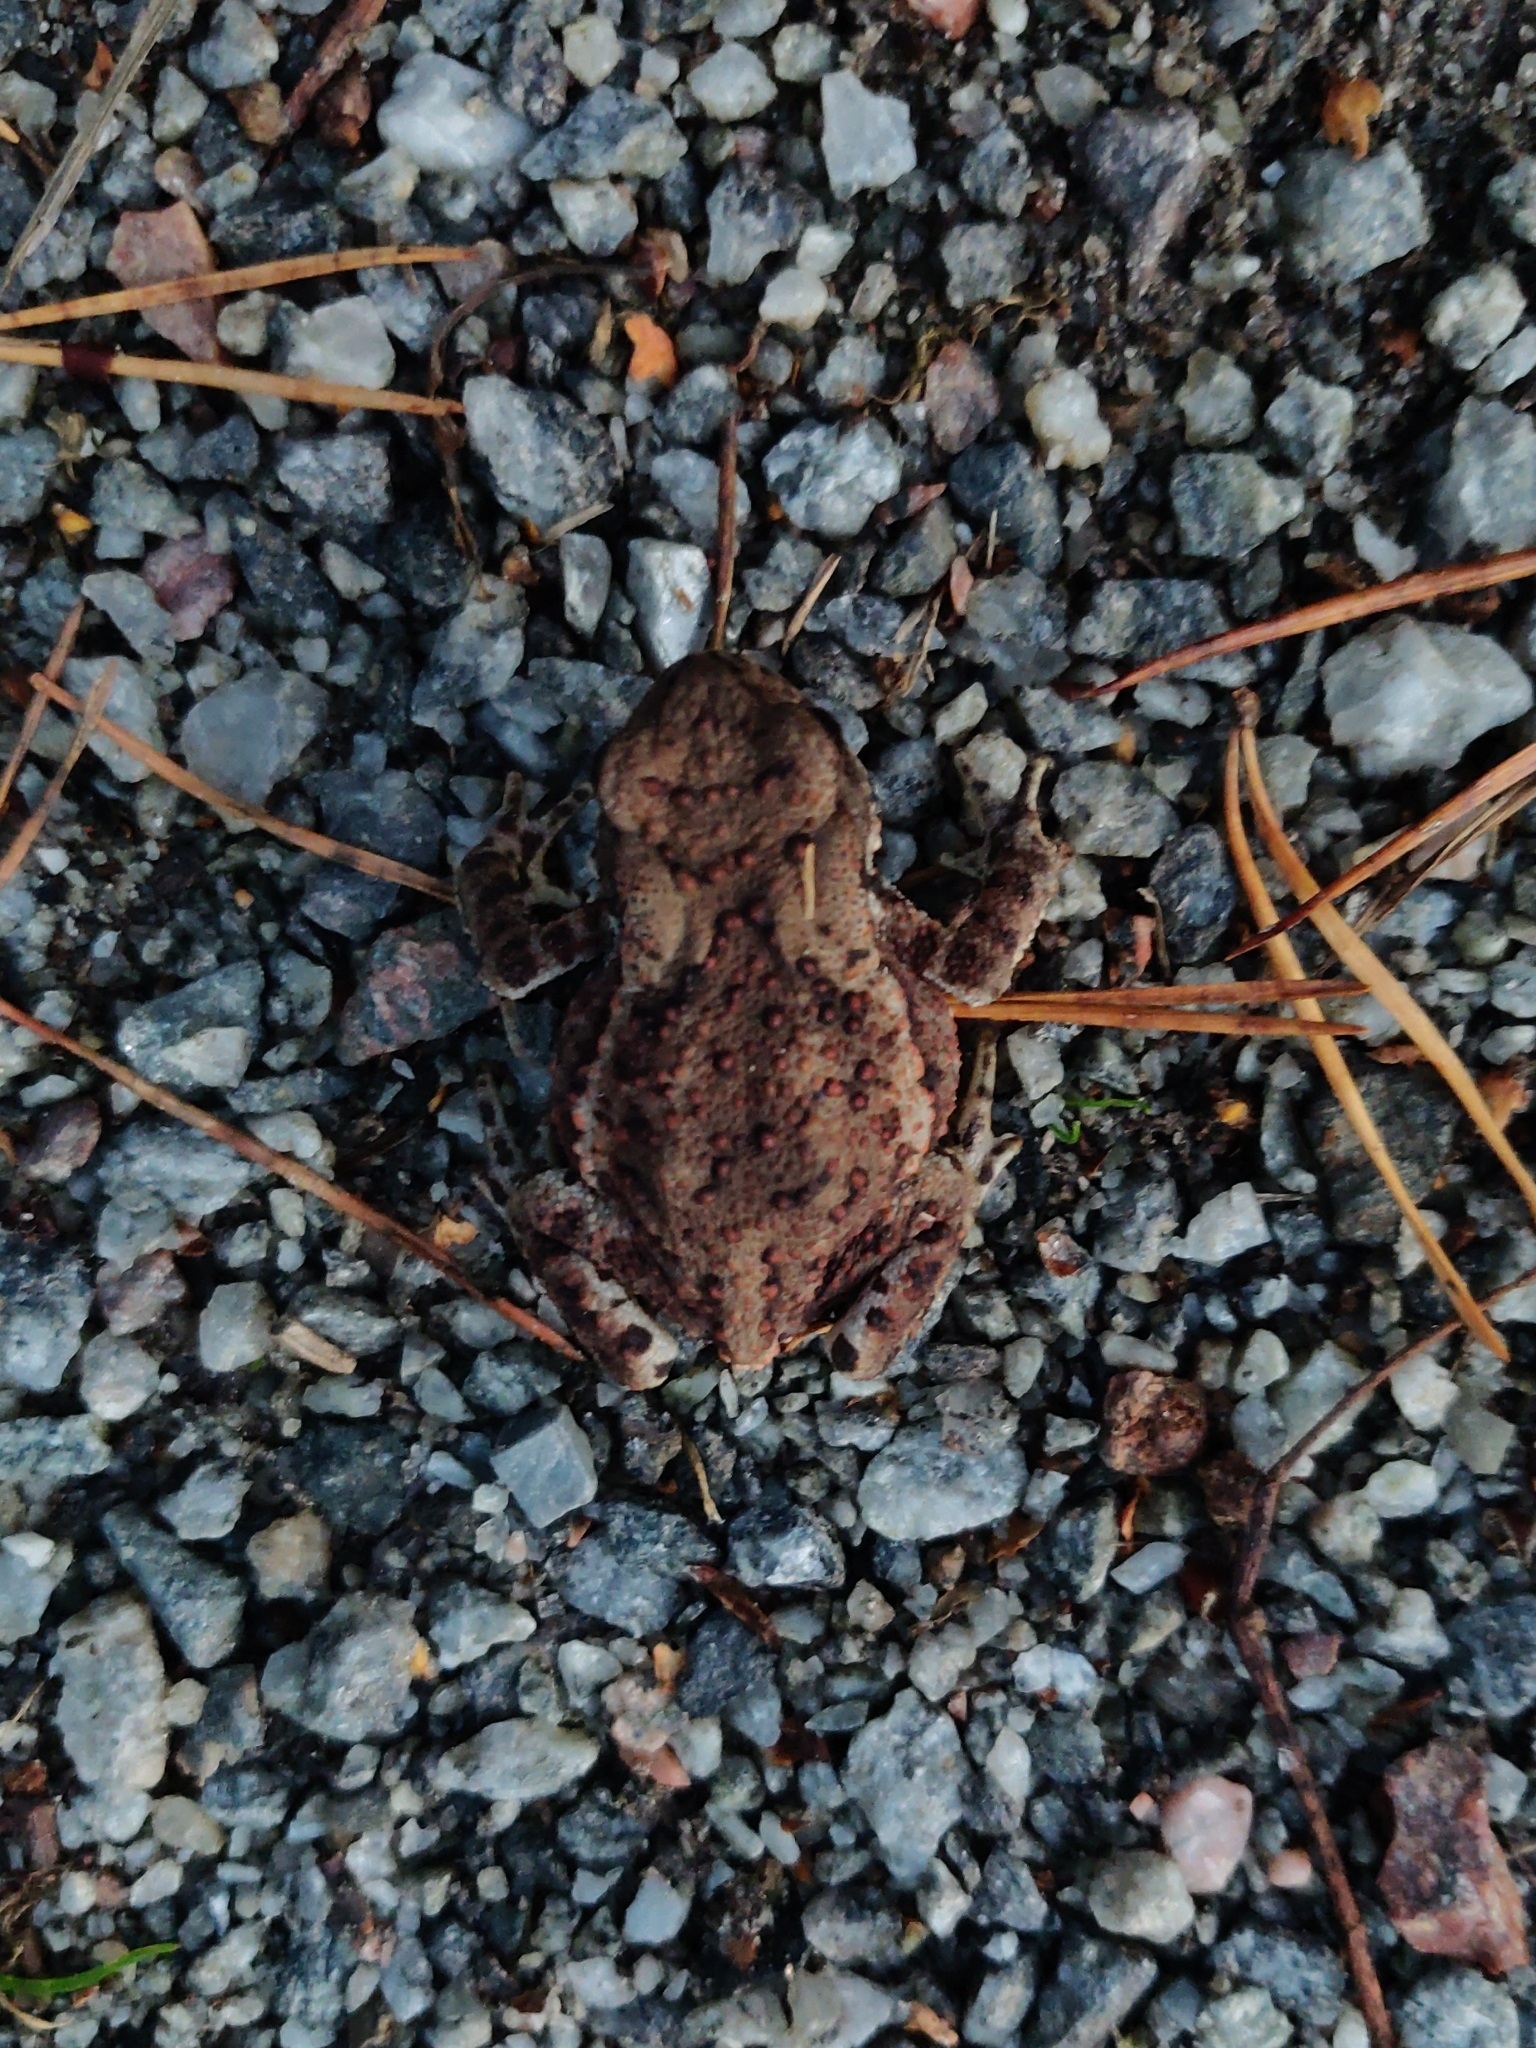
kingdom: Animalia
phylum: Chordata
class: Amphibia
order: Anura
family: Bufonidae
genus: Bufo
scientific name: Bufo bufo
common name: Common toad
